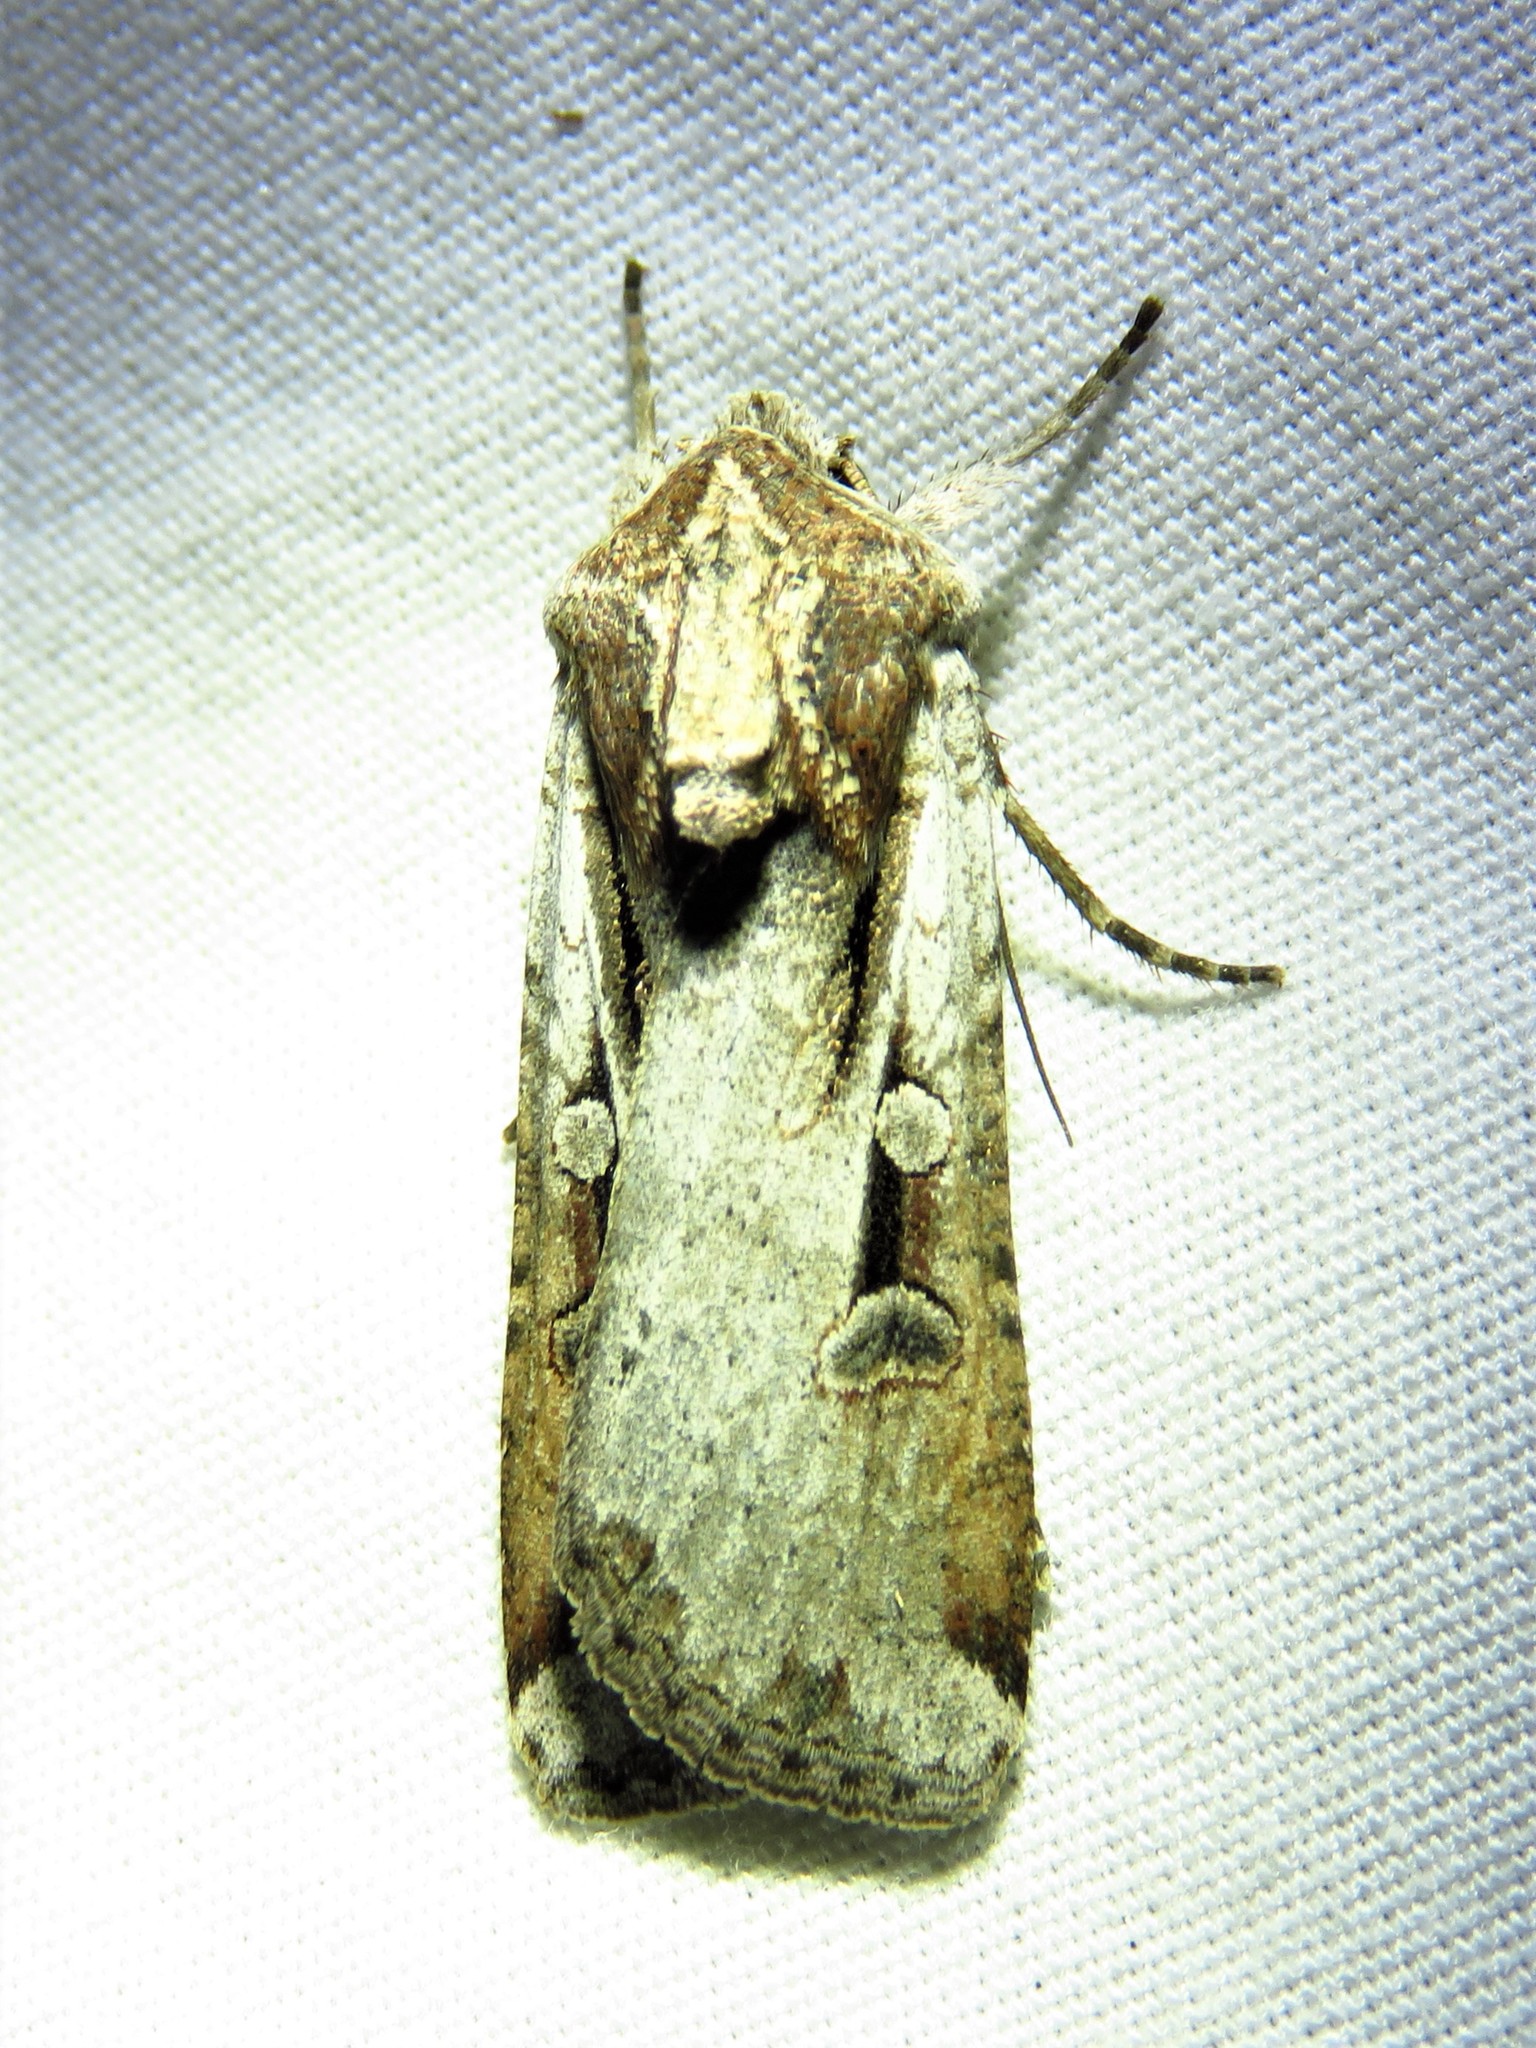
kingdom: Animalia
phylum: Arthropoda
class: Insecta
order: Lepidoptera
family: Noctuidae
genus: Hemieuxoa
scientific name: Hemieuxoa rudens
